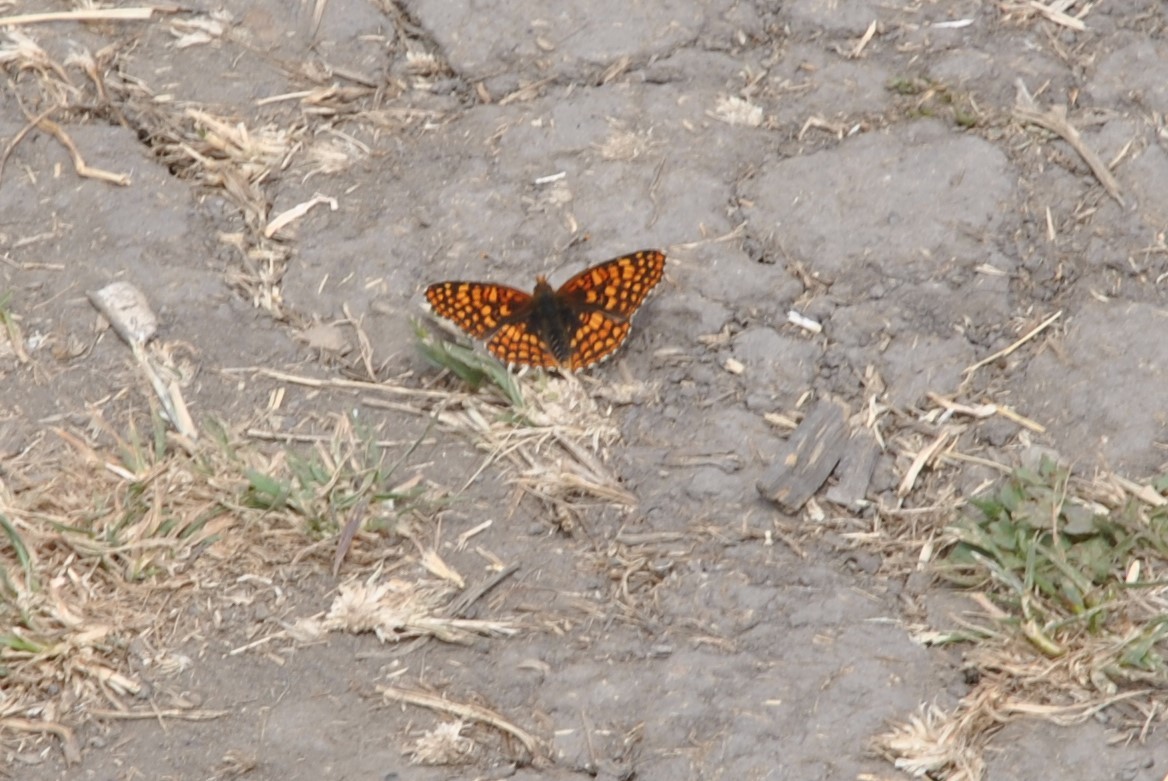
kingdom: Animalia
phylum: Arthropoda
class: Insecta
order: Lepidoptera
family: Nymphalidae
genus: Chlosyne
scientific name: Chlosyne palla
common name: Northern checkerspot
